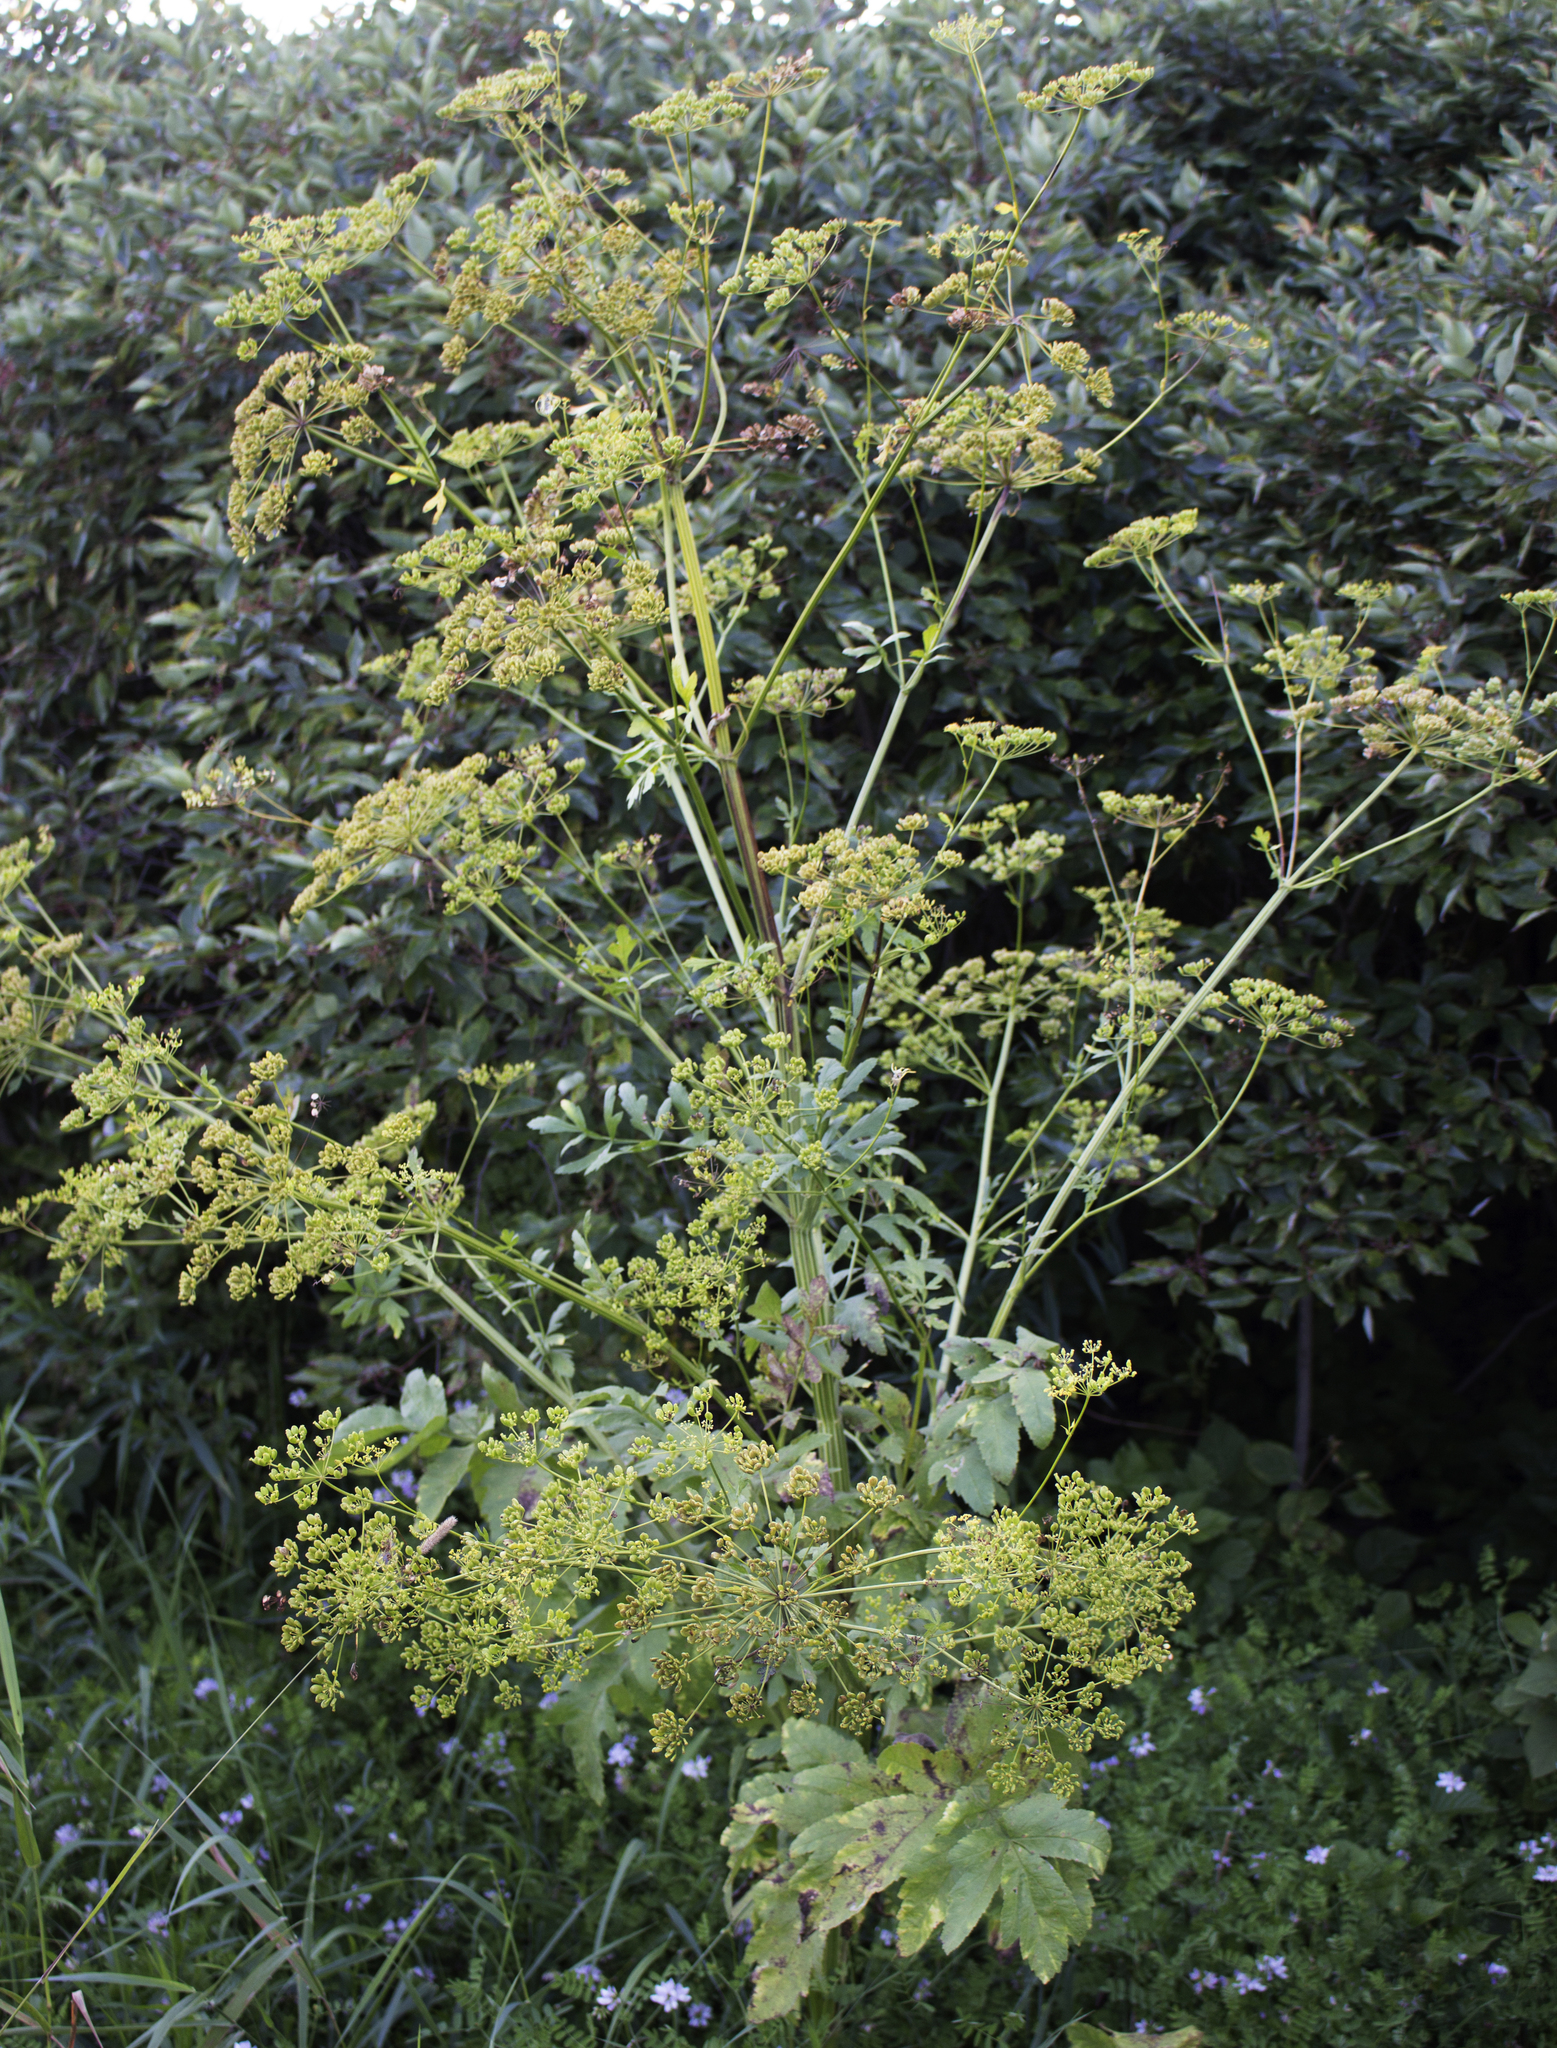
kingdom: Plantae
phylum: Tracheophyta
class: Magnoliopsida
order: Apiales
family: Apiaceae
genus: Pastinaca
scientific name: Pastinaca sativa
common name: Wild parsnip
